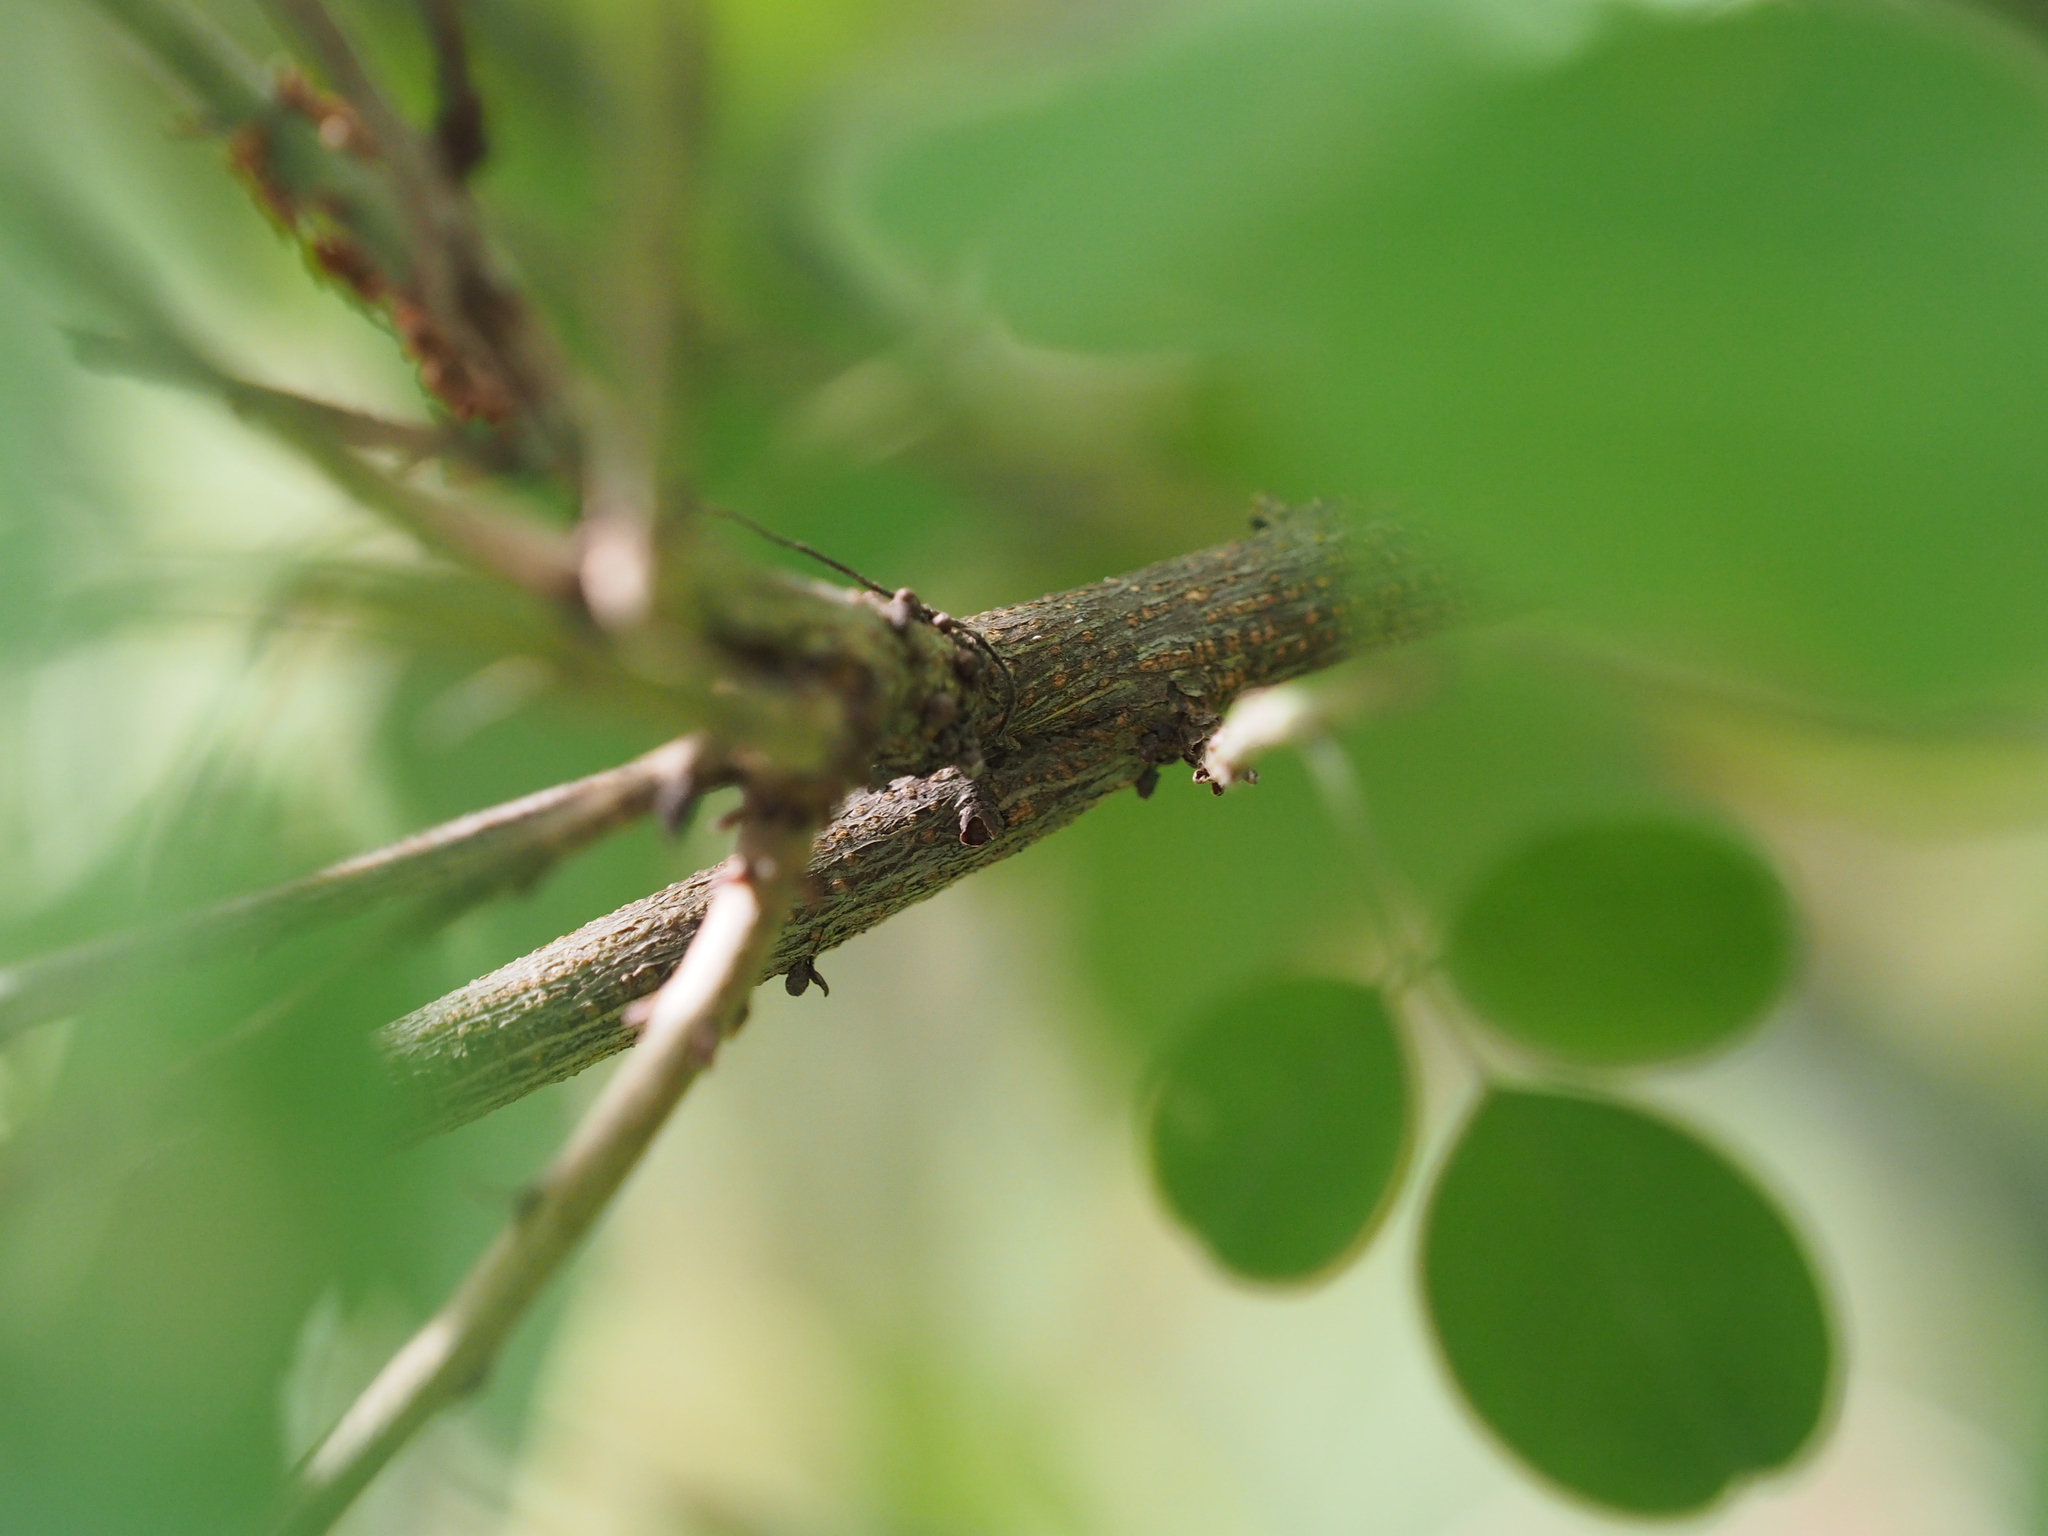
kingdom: Plantae
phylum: Tracheophyta
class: Magnoliopsida
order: Fabales
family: Fabaceae
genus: Lespedeza
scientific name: Lespedeza bicolor
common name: Shrub lespedeza
